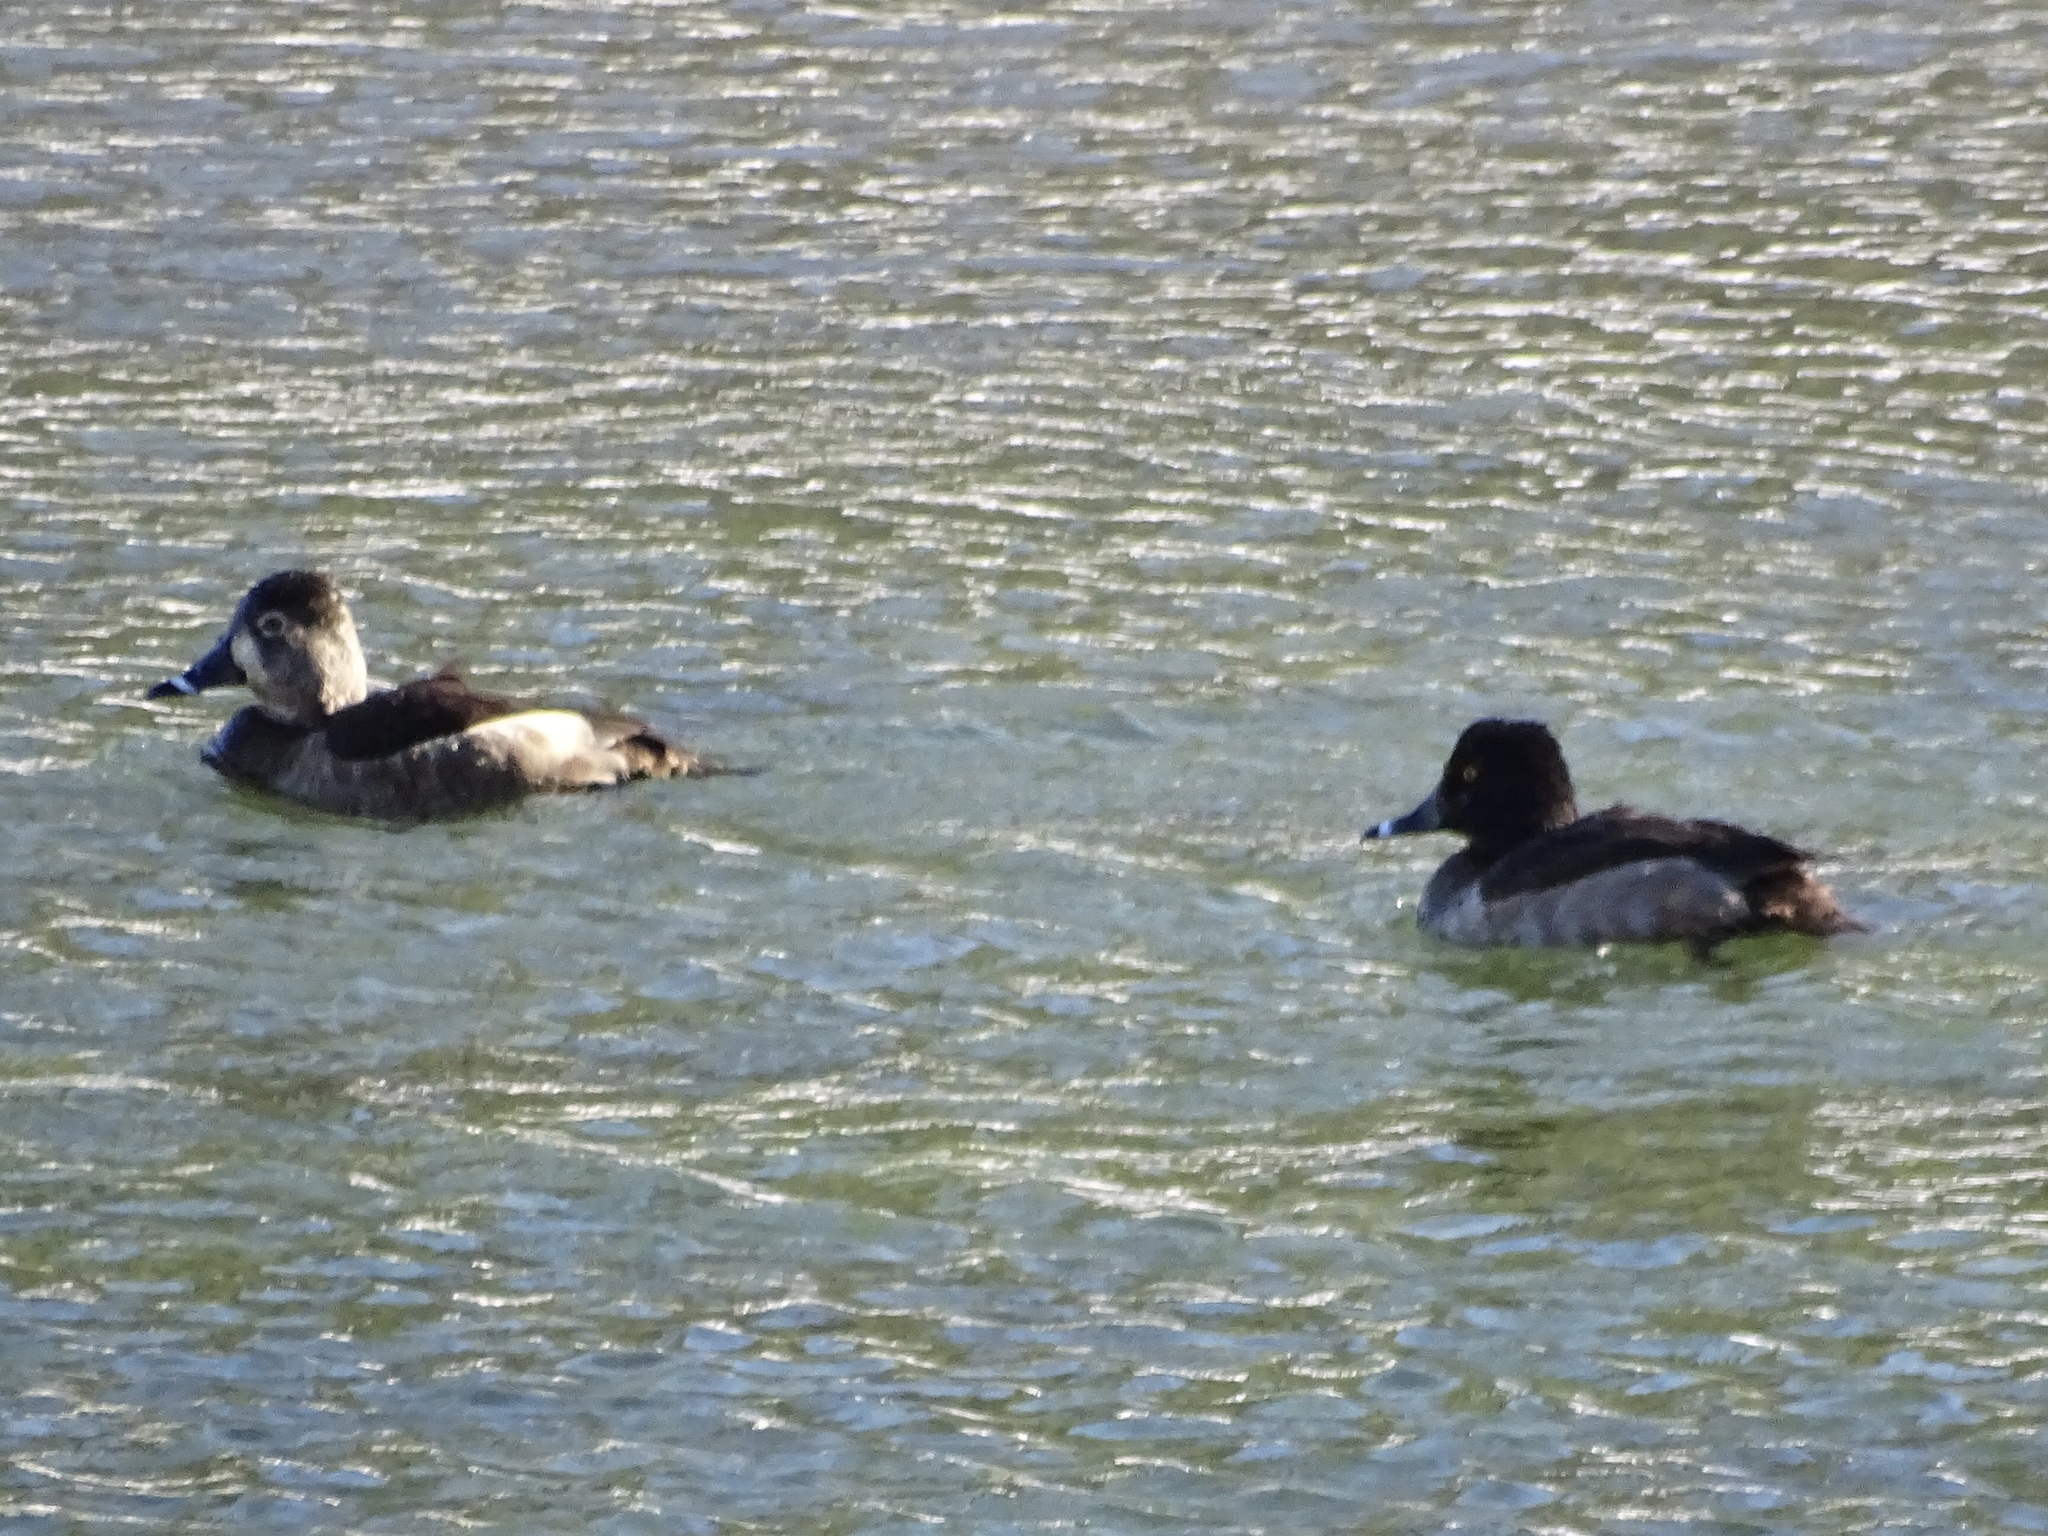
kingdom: Animalia
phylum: Chordata
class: Aves
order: Anseriformes
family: Anatidae
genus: Aythya
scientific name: Aythya collaris
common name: Ring-necked duck
